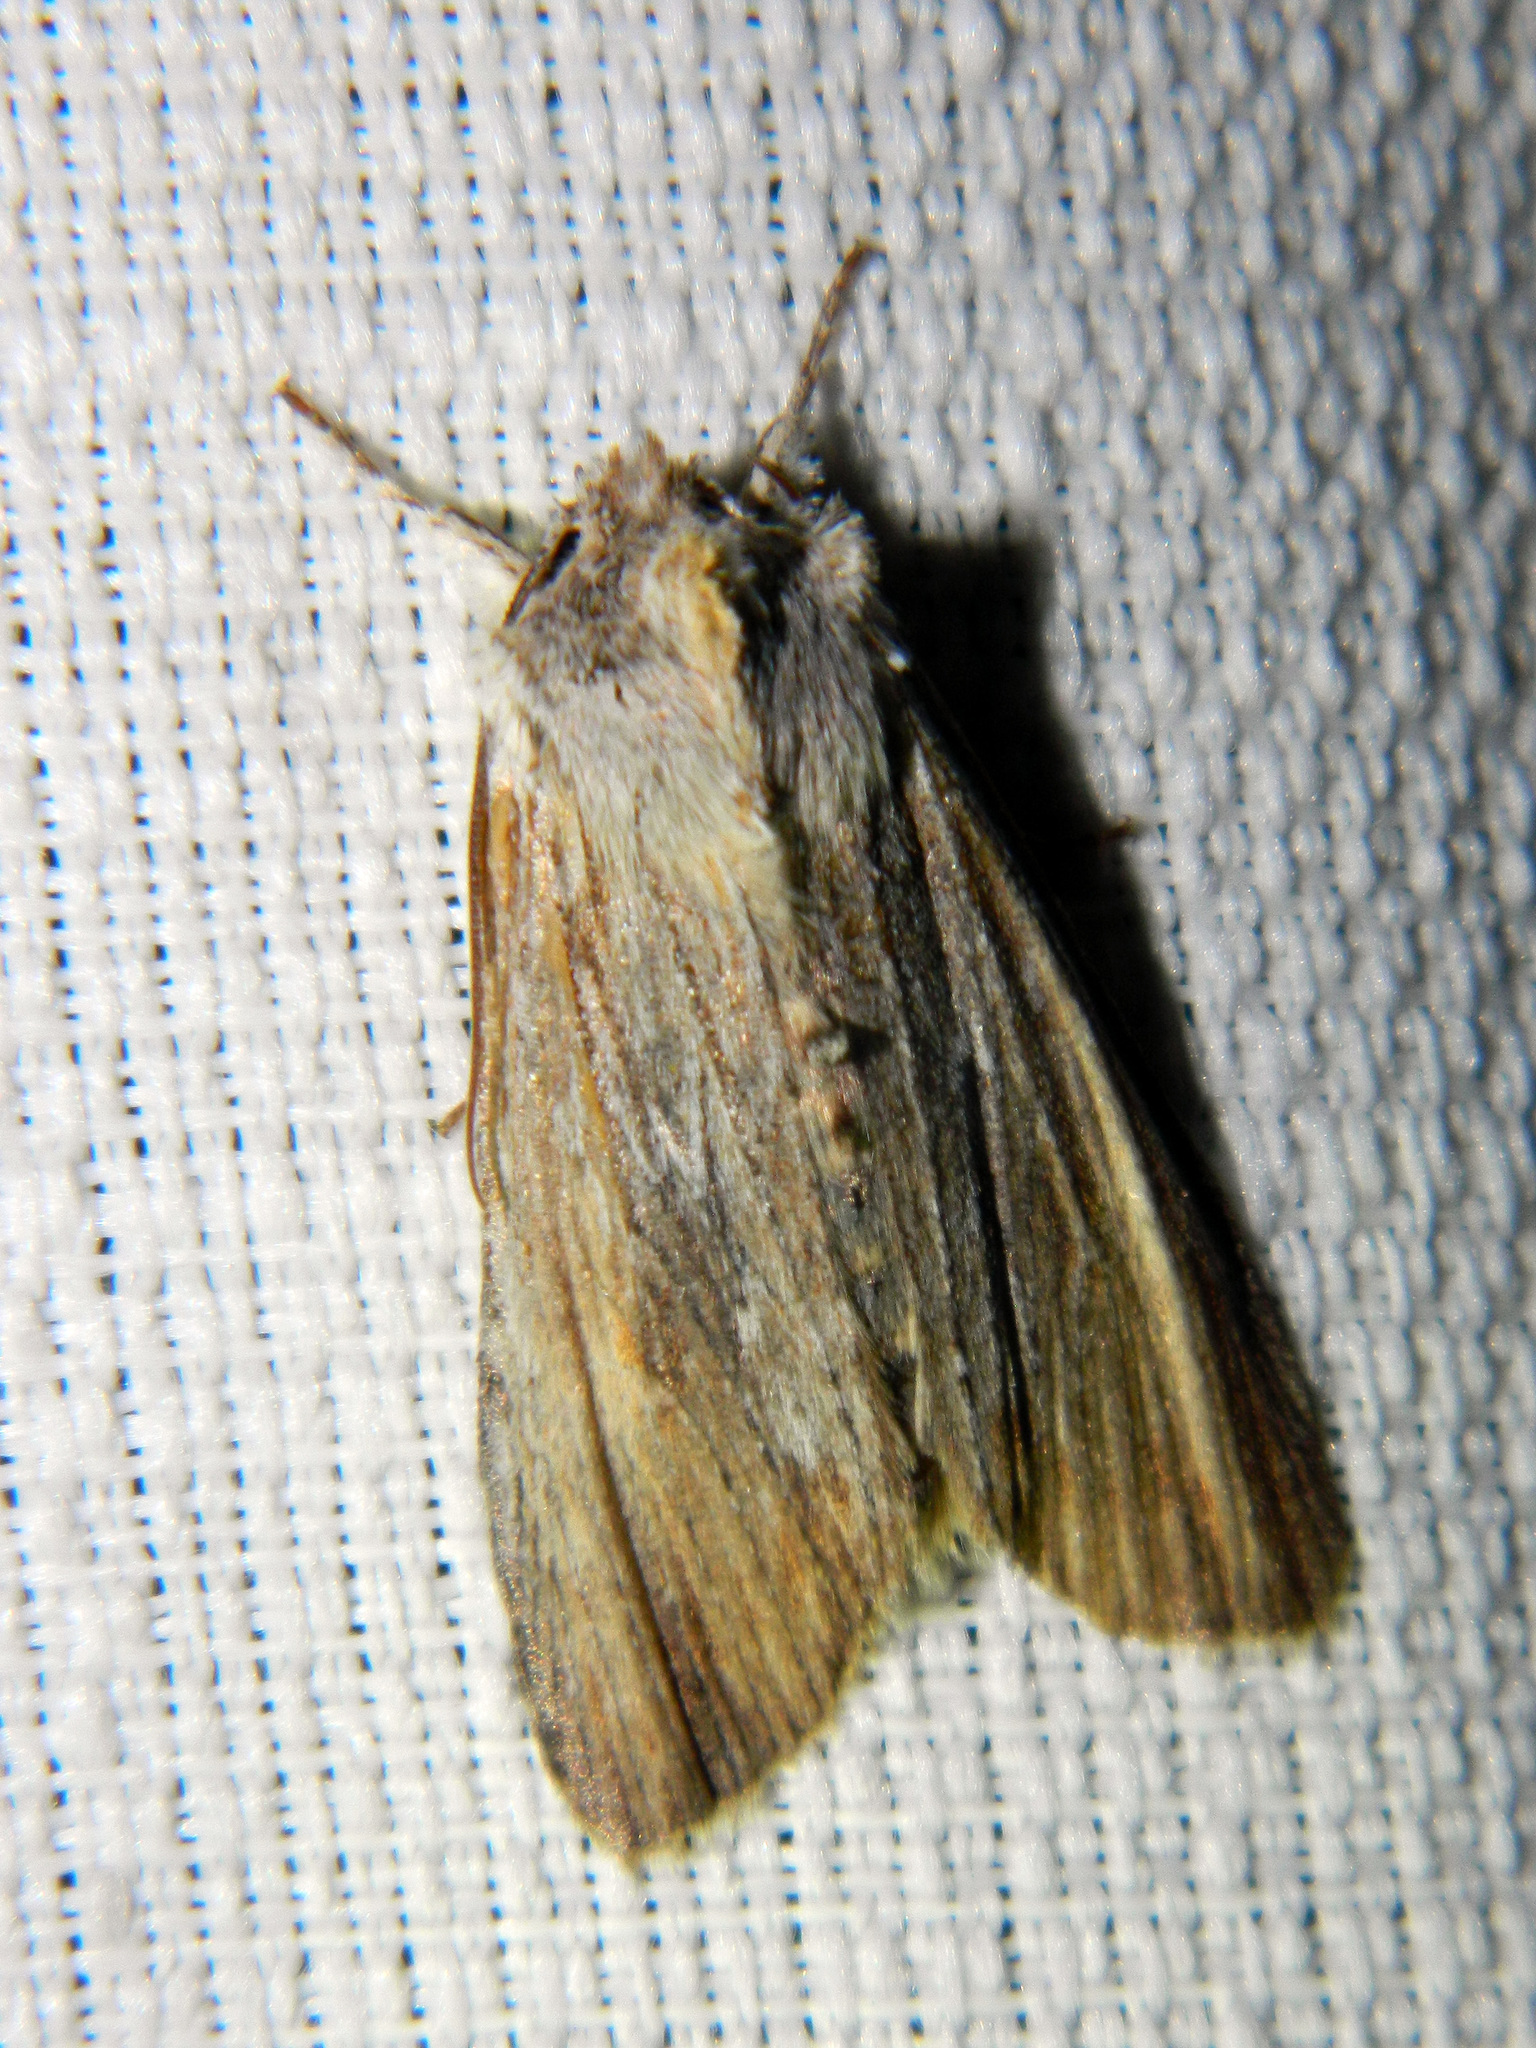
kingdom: Animalia
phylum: Arthropoda
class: Insecta
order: Lepidoptera
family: Noctuidae
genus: Lithophane
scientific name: Lithophane amanda
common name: Amanda's pinion moth
